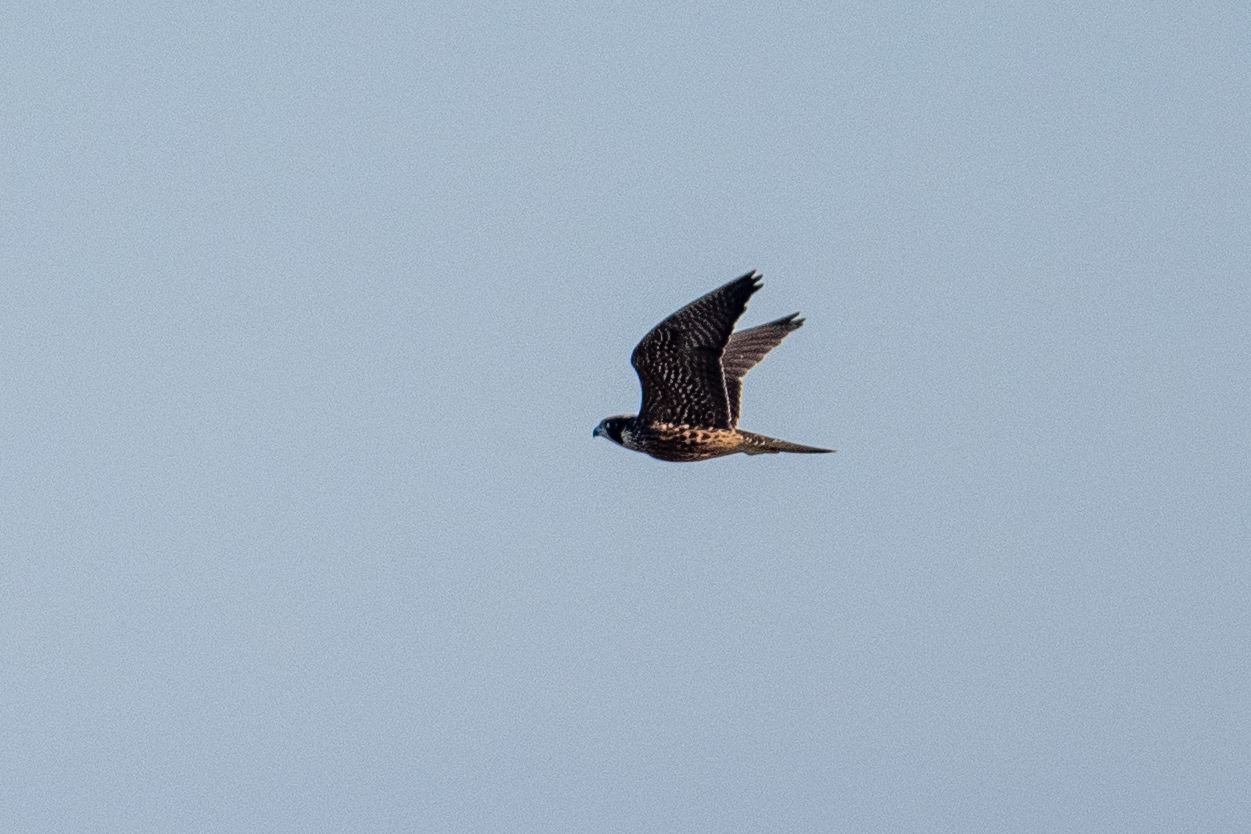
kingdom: Animalia
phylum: Chordata
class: Aves
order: Falconiformes
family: Falconidae
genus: Falco
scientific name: Falco peregrinus
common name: Peregrine falcon
